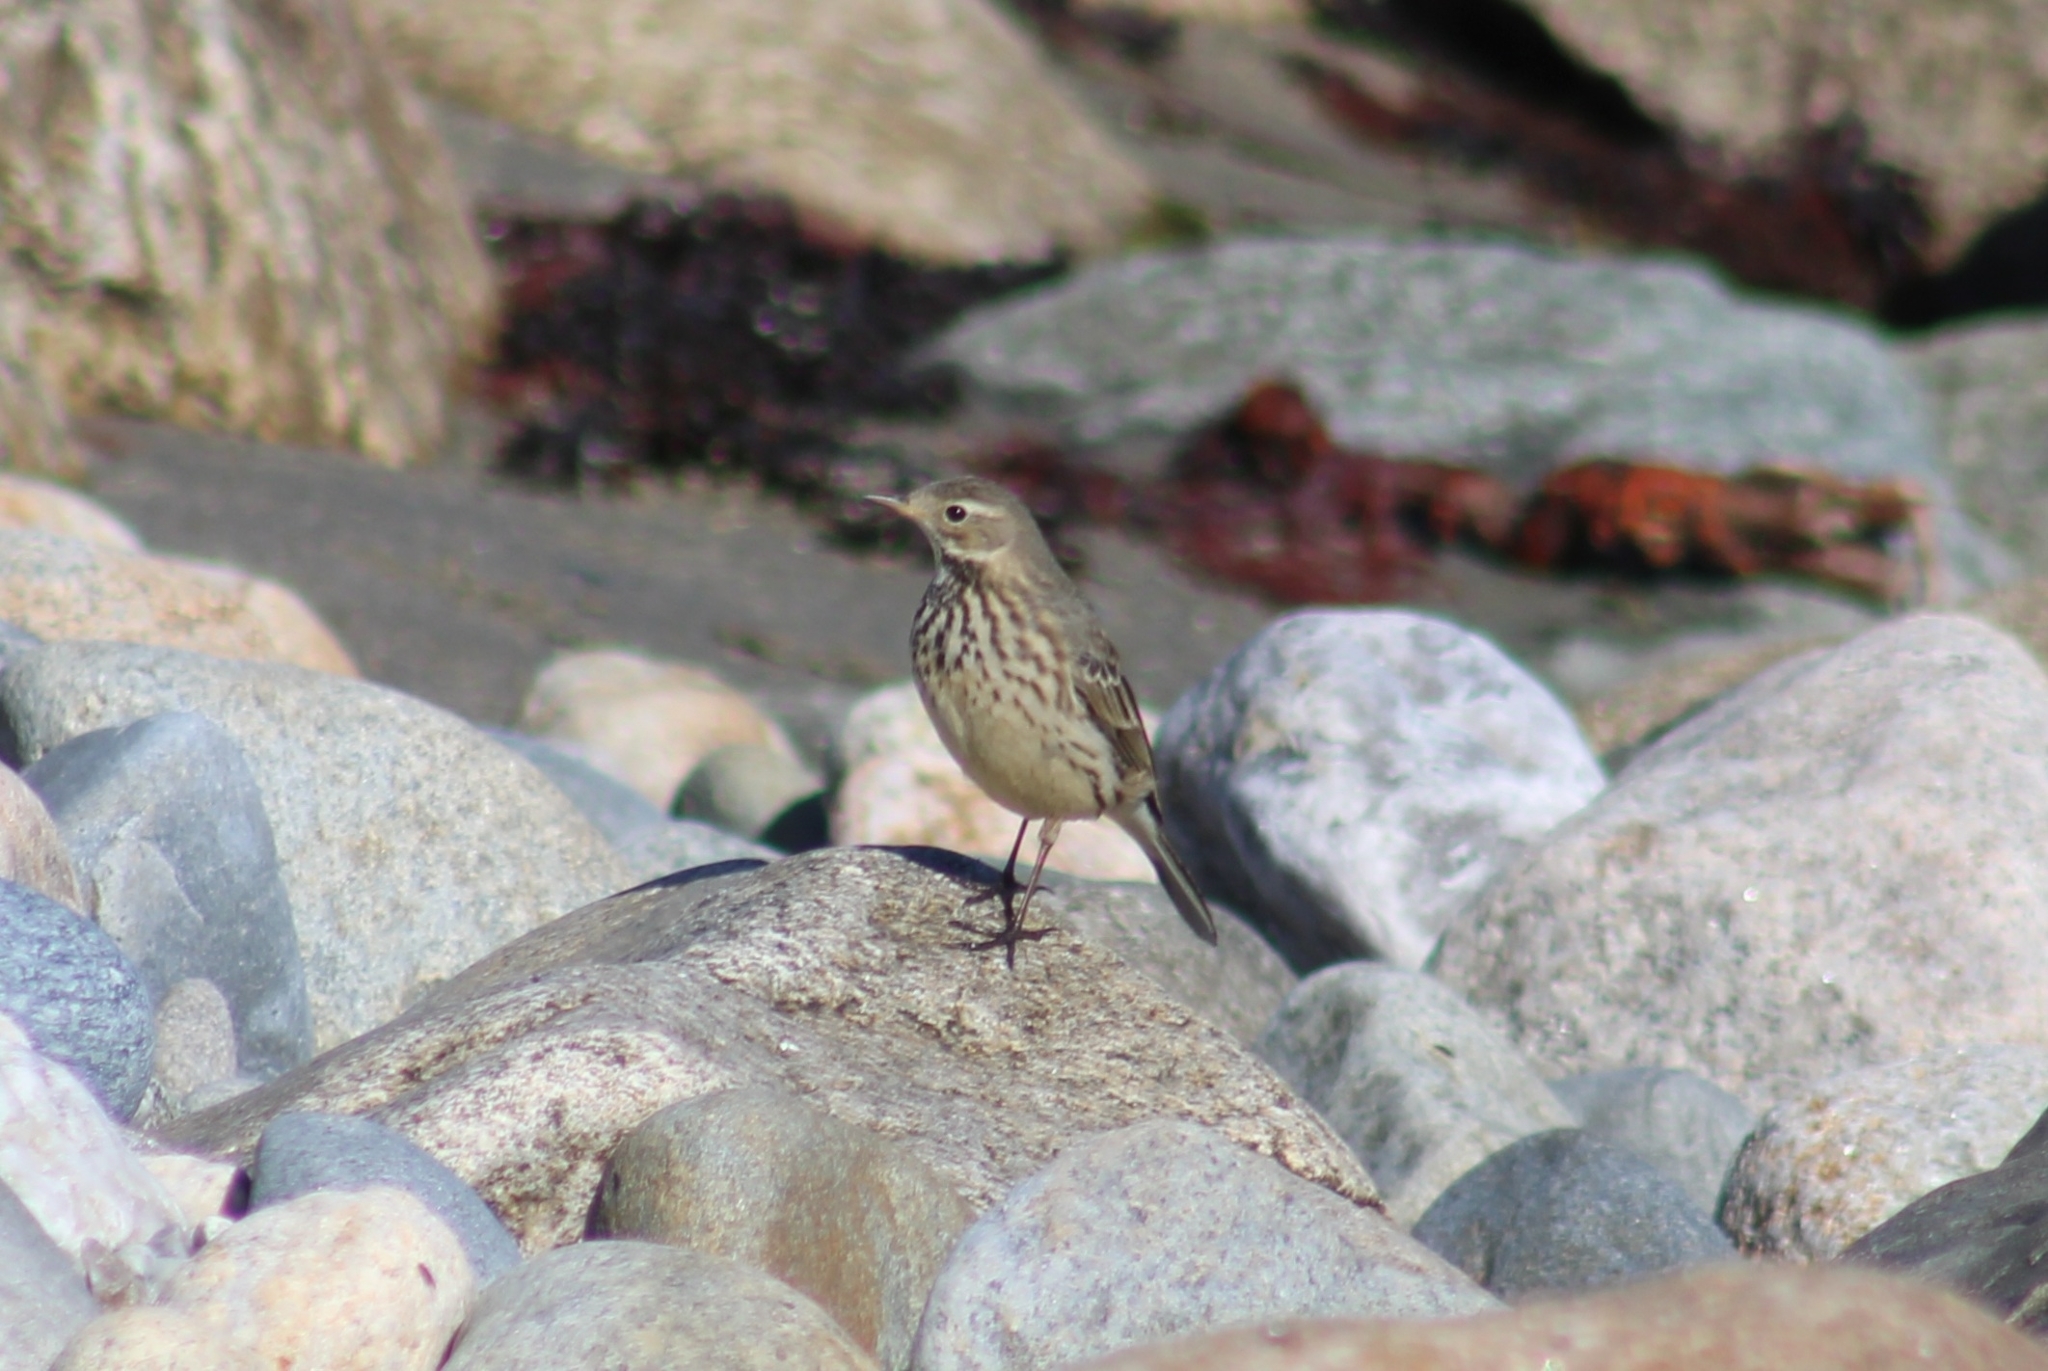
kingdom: Animalia
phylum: Chordata
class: Aves
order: Passeriformes
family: Motacillidae
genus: Anthus
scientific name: Anthus rubescens
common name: Buff-bellied pipit
